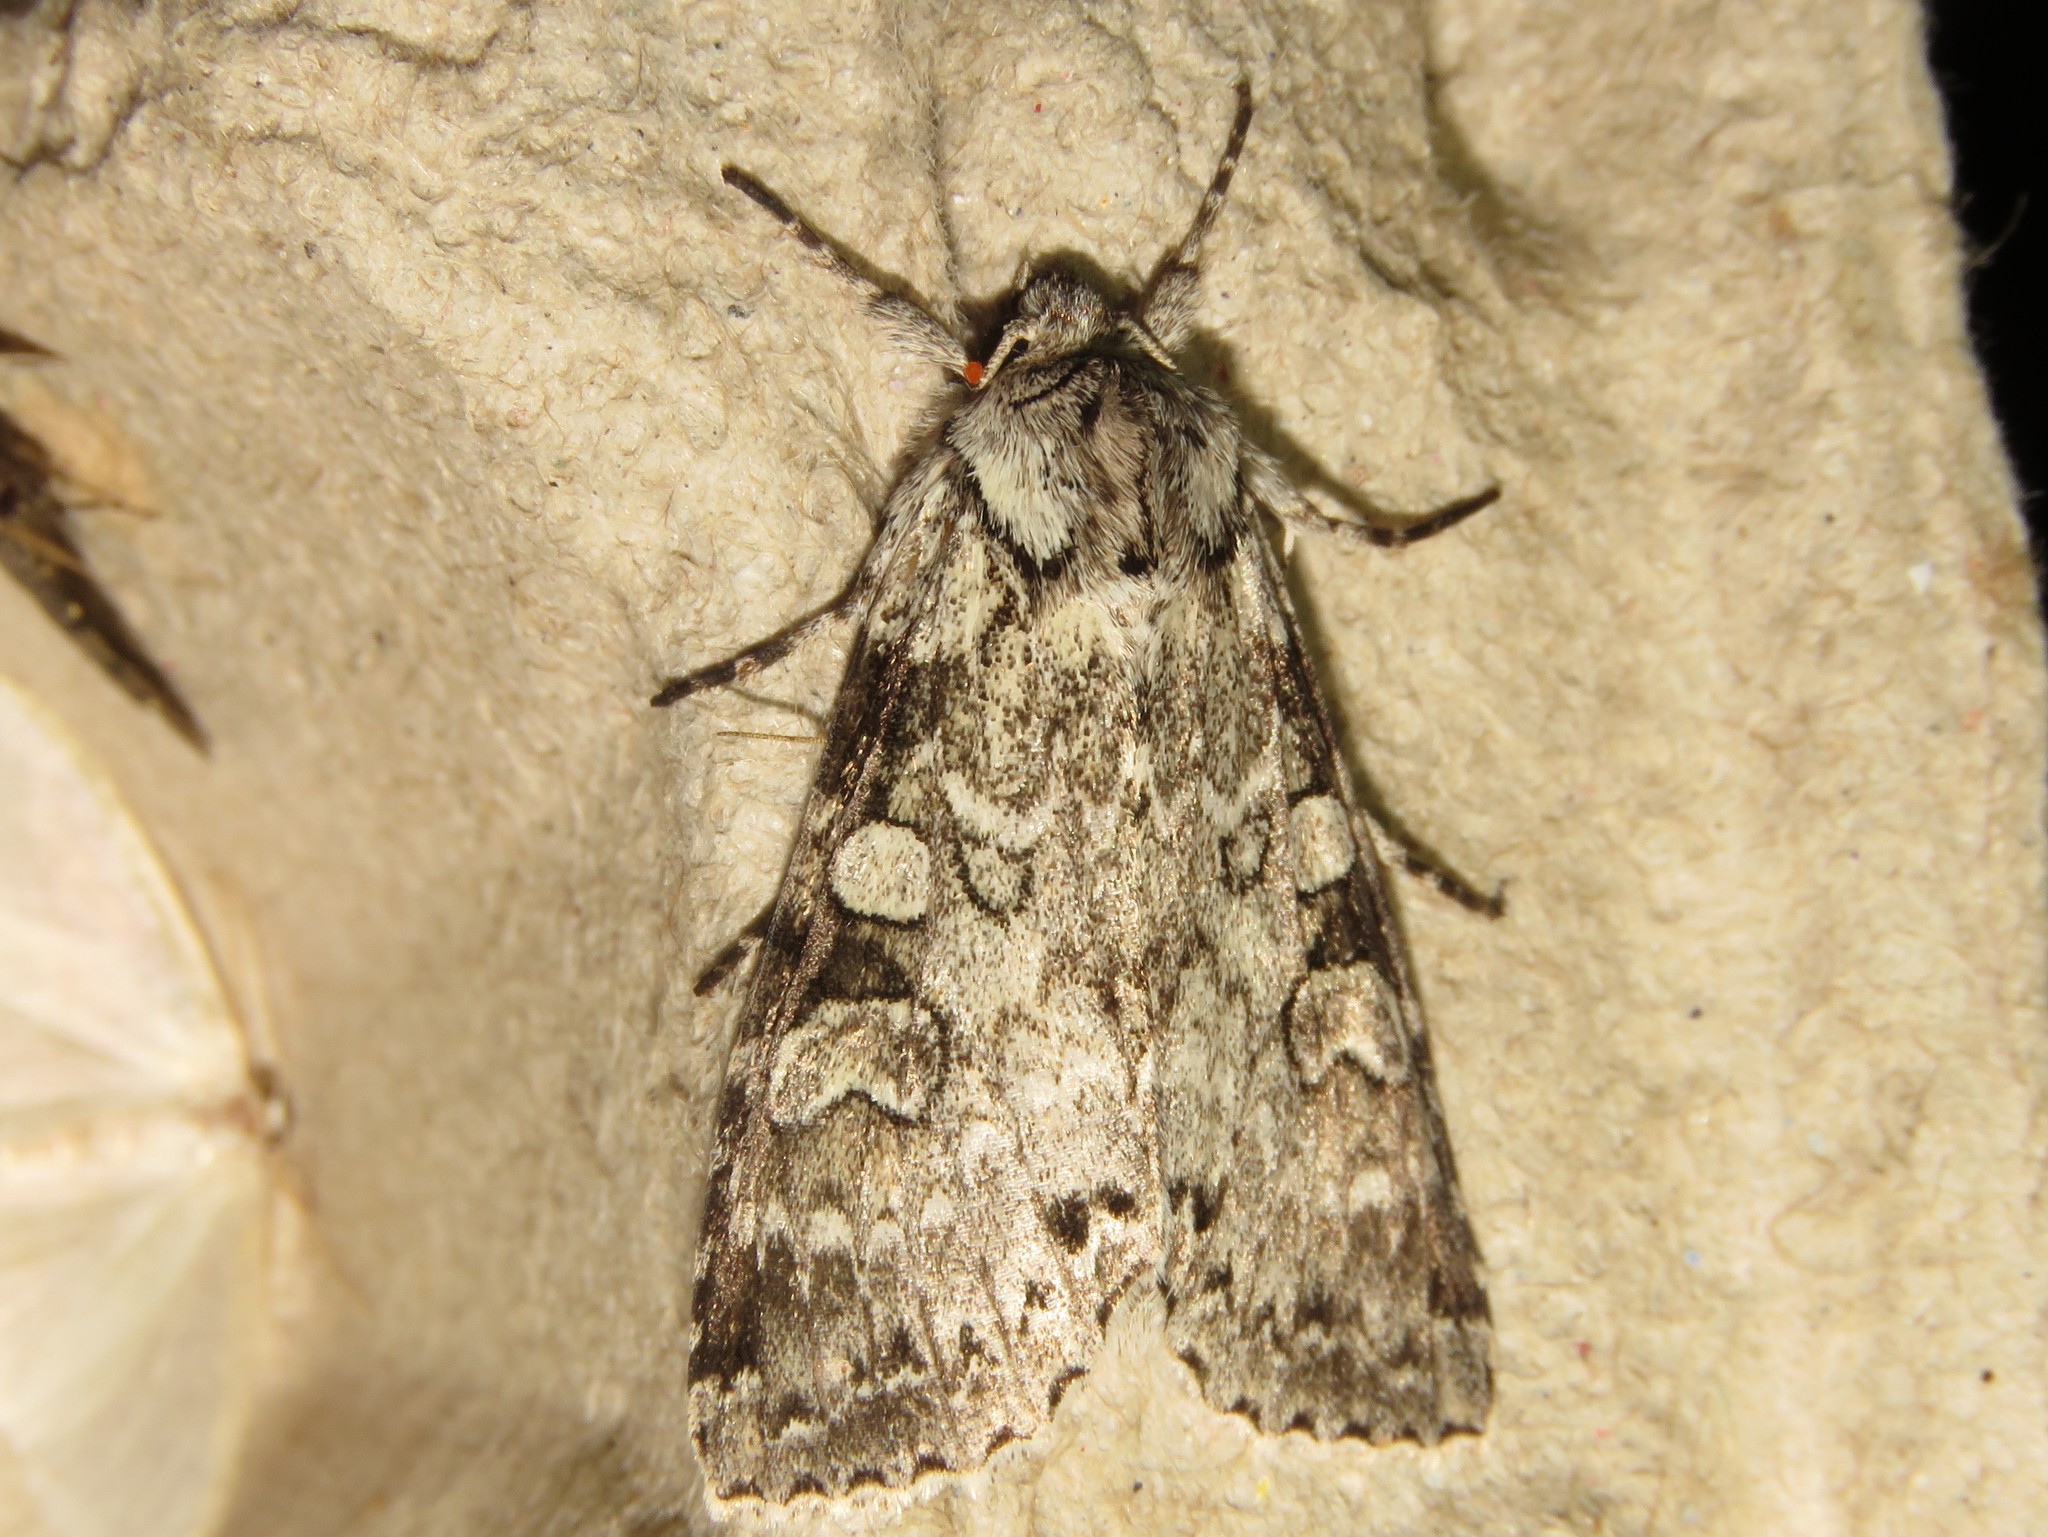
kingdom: Animalia
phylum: Arthropoda
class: Insecta
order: Lepidoptera
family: Noctuidae
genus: Polia
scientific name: Polia nimbosa
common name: Stormy arches
